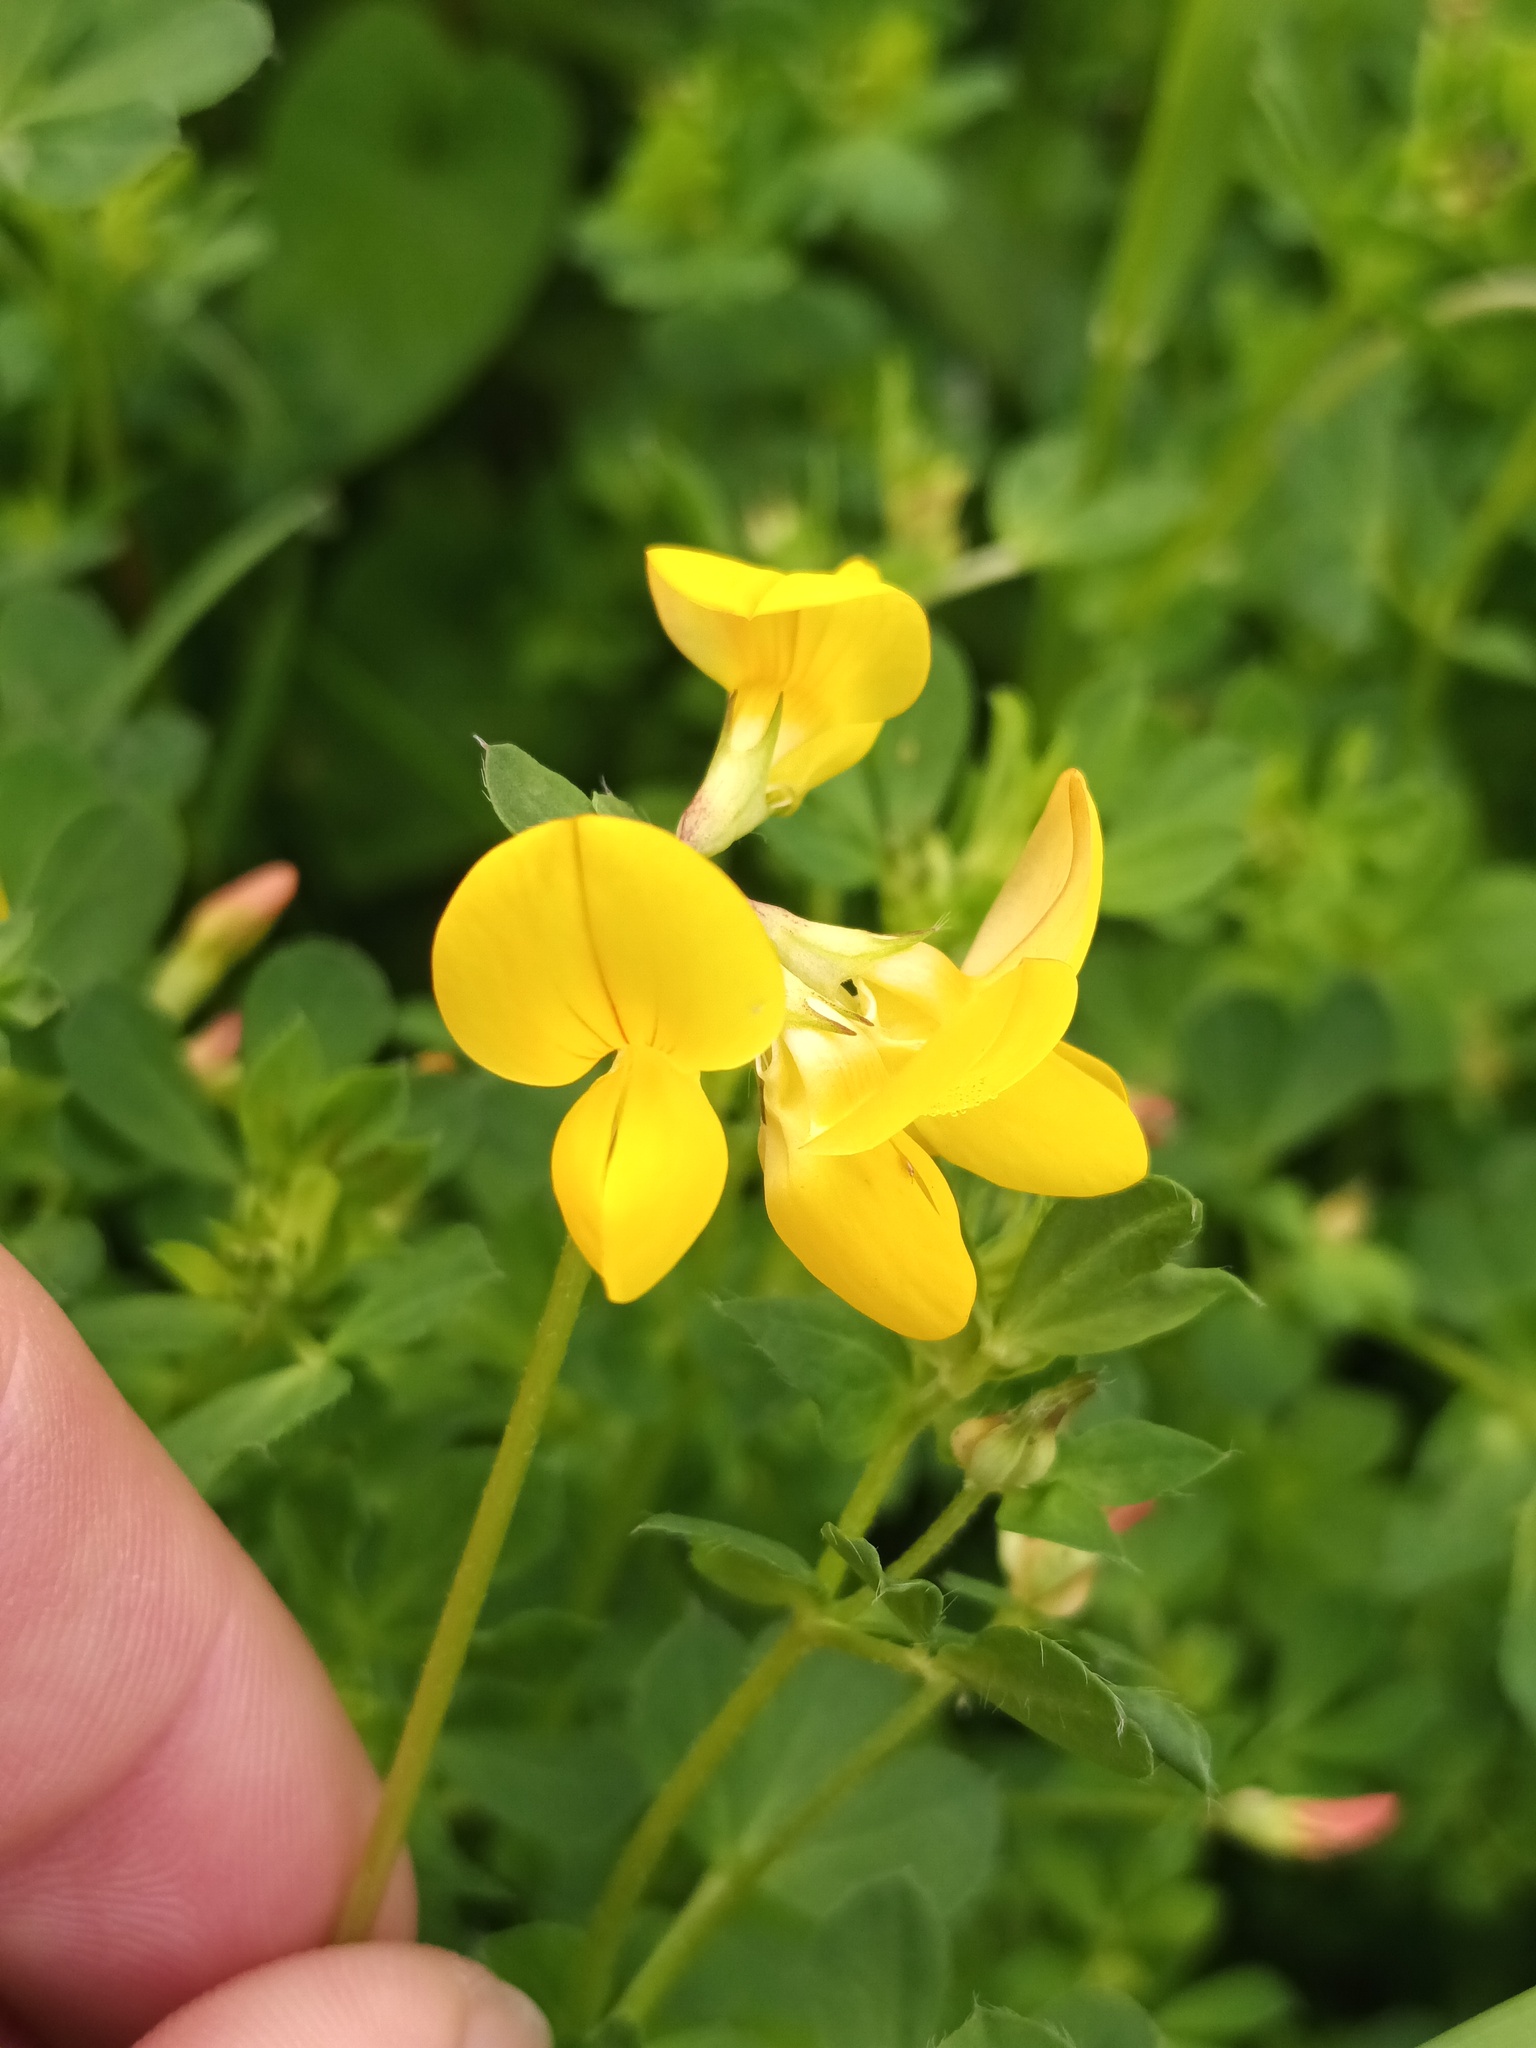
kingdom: Plantae
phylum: Tracheophyta
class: Magnoliopsida
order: Fabales
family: Fabaceae
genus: Lotus
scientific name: Lotus corniculatus
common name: Common bird's-foot-trefoil
